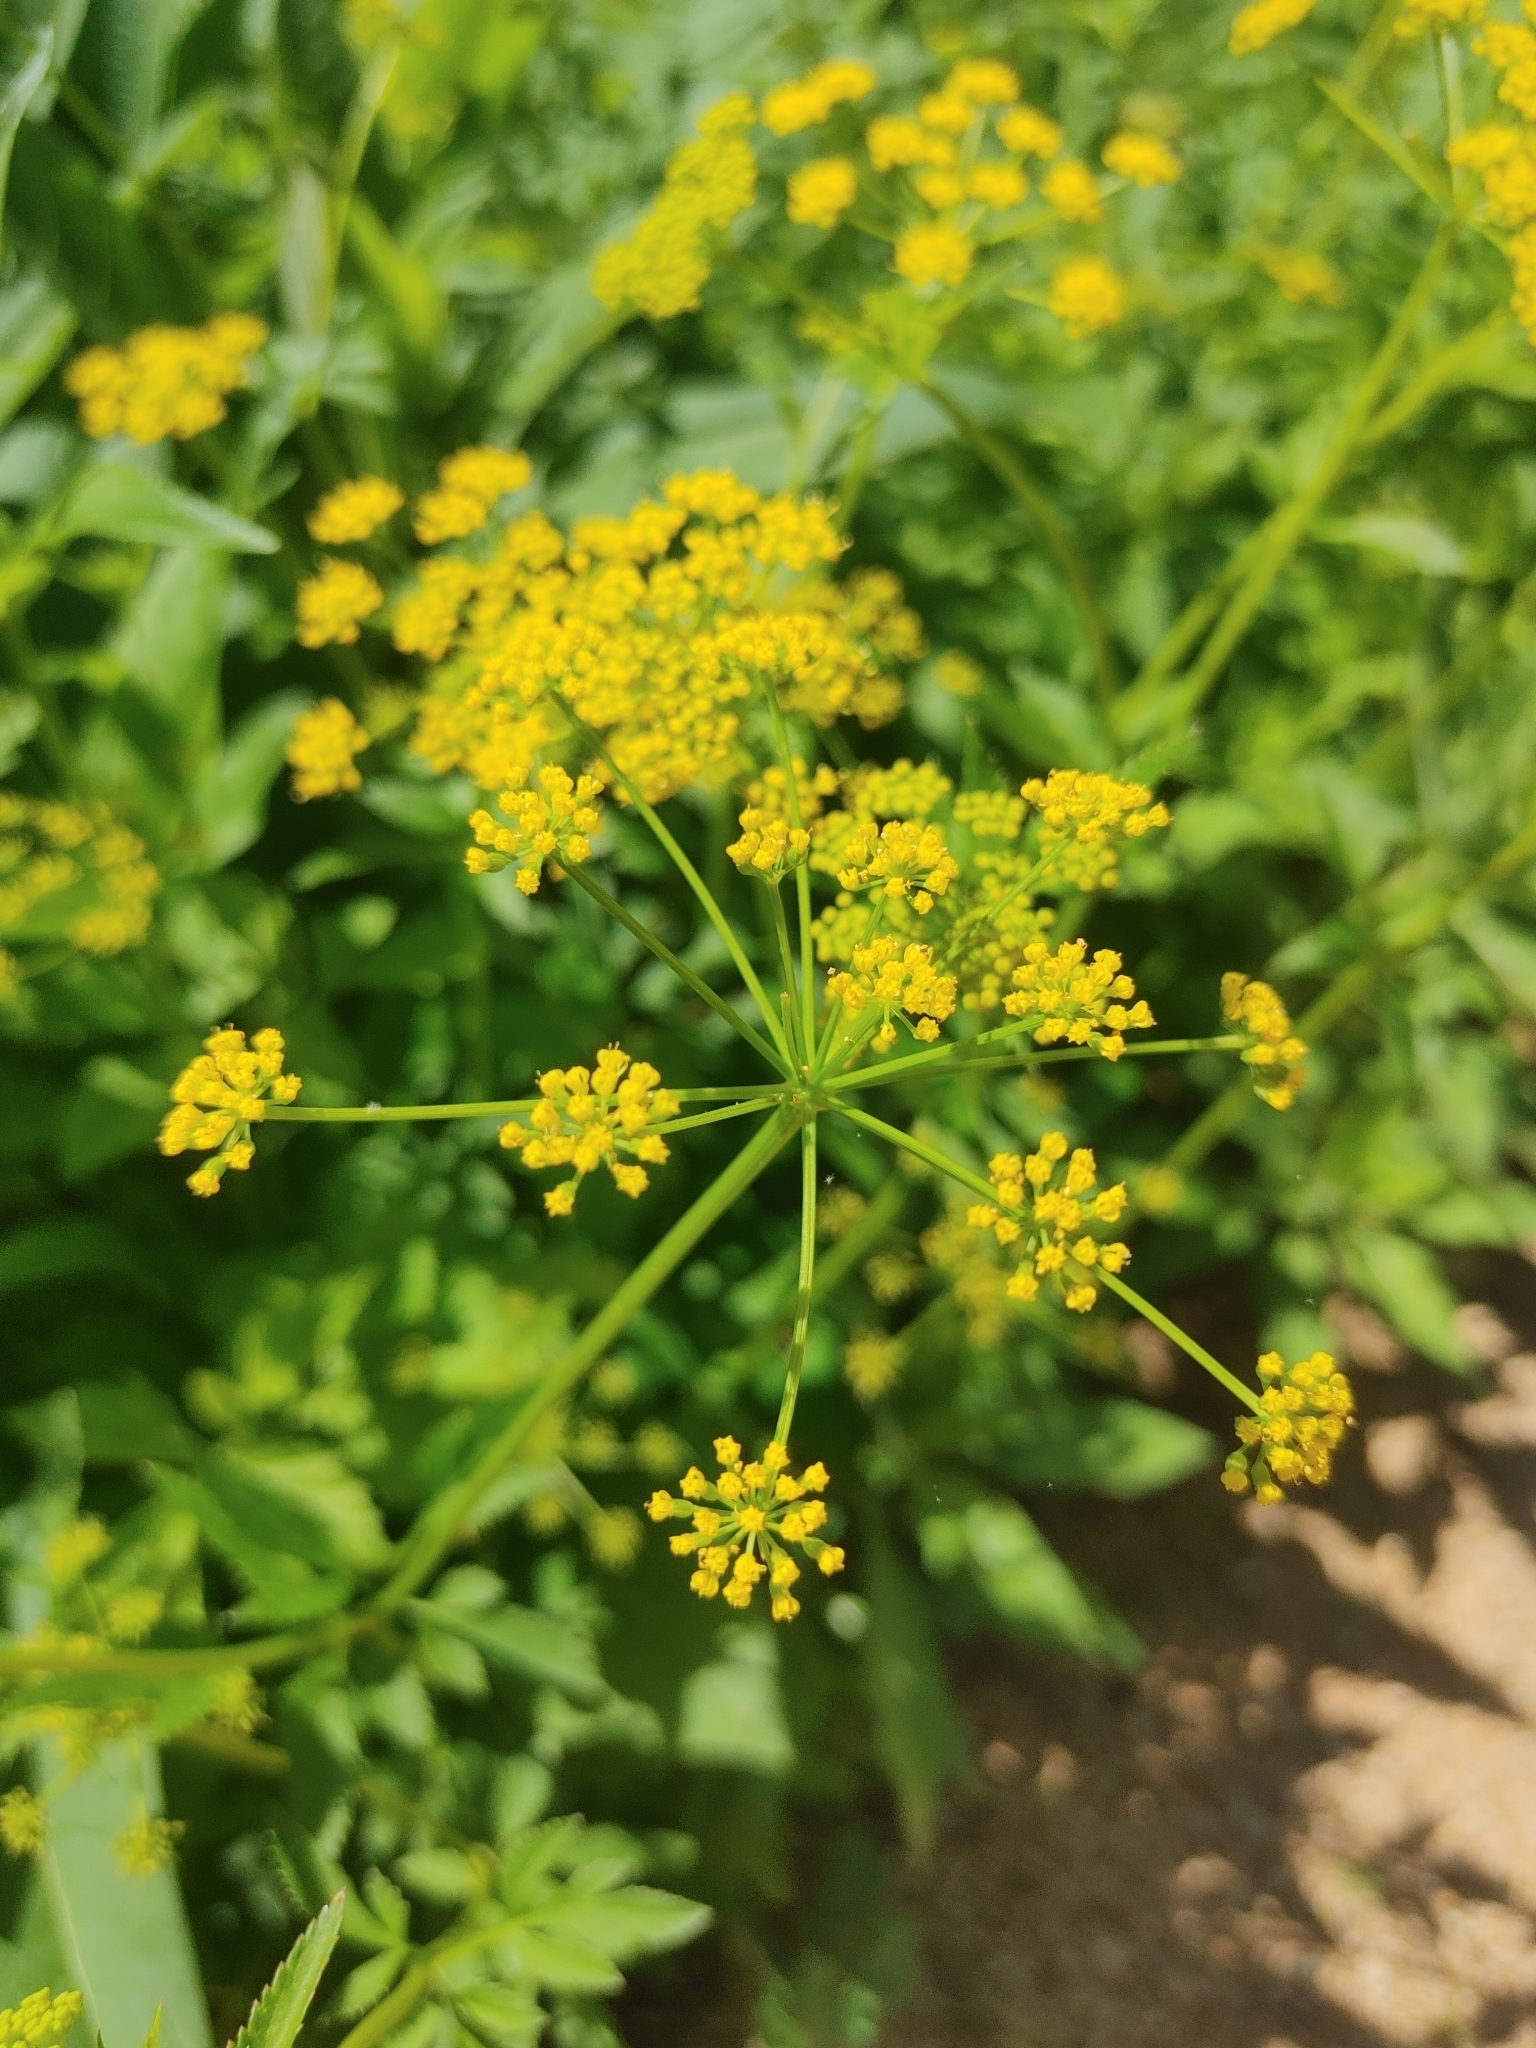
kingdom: Plantae
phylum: Tracheophyta
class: Magnoliopsida
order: Apiales
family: Apiaceae
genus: Zizia
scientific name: Zizia aurea
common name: Golden alexanders
